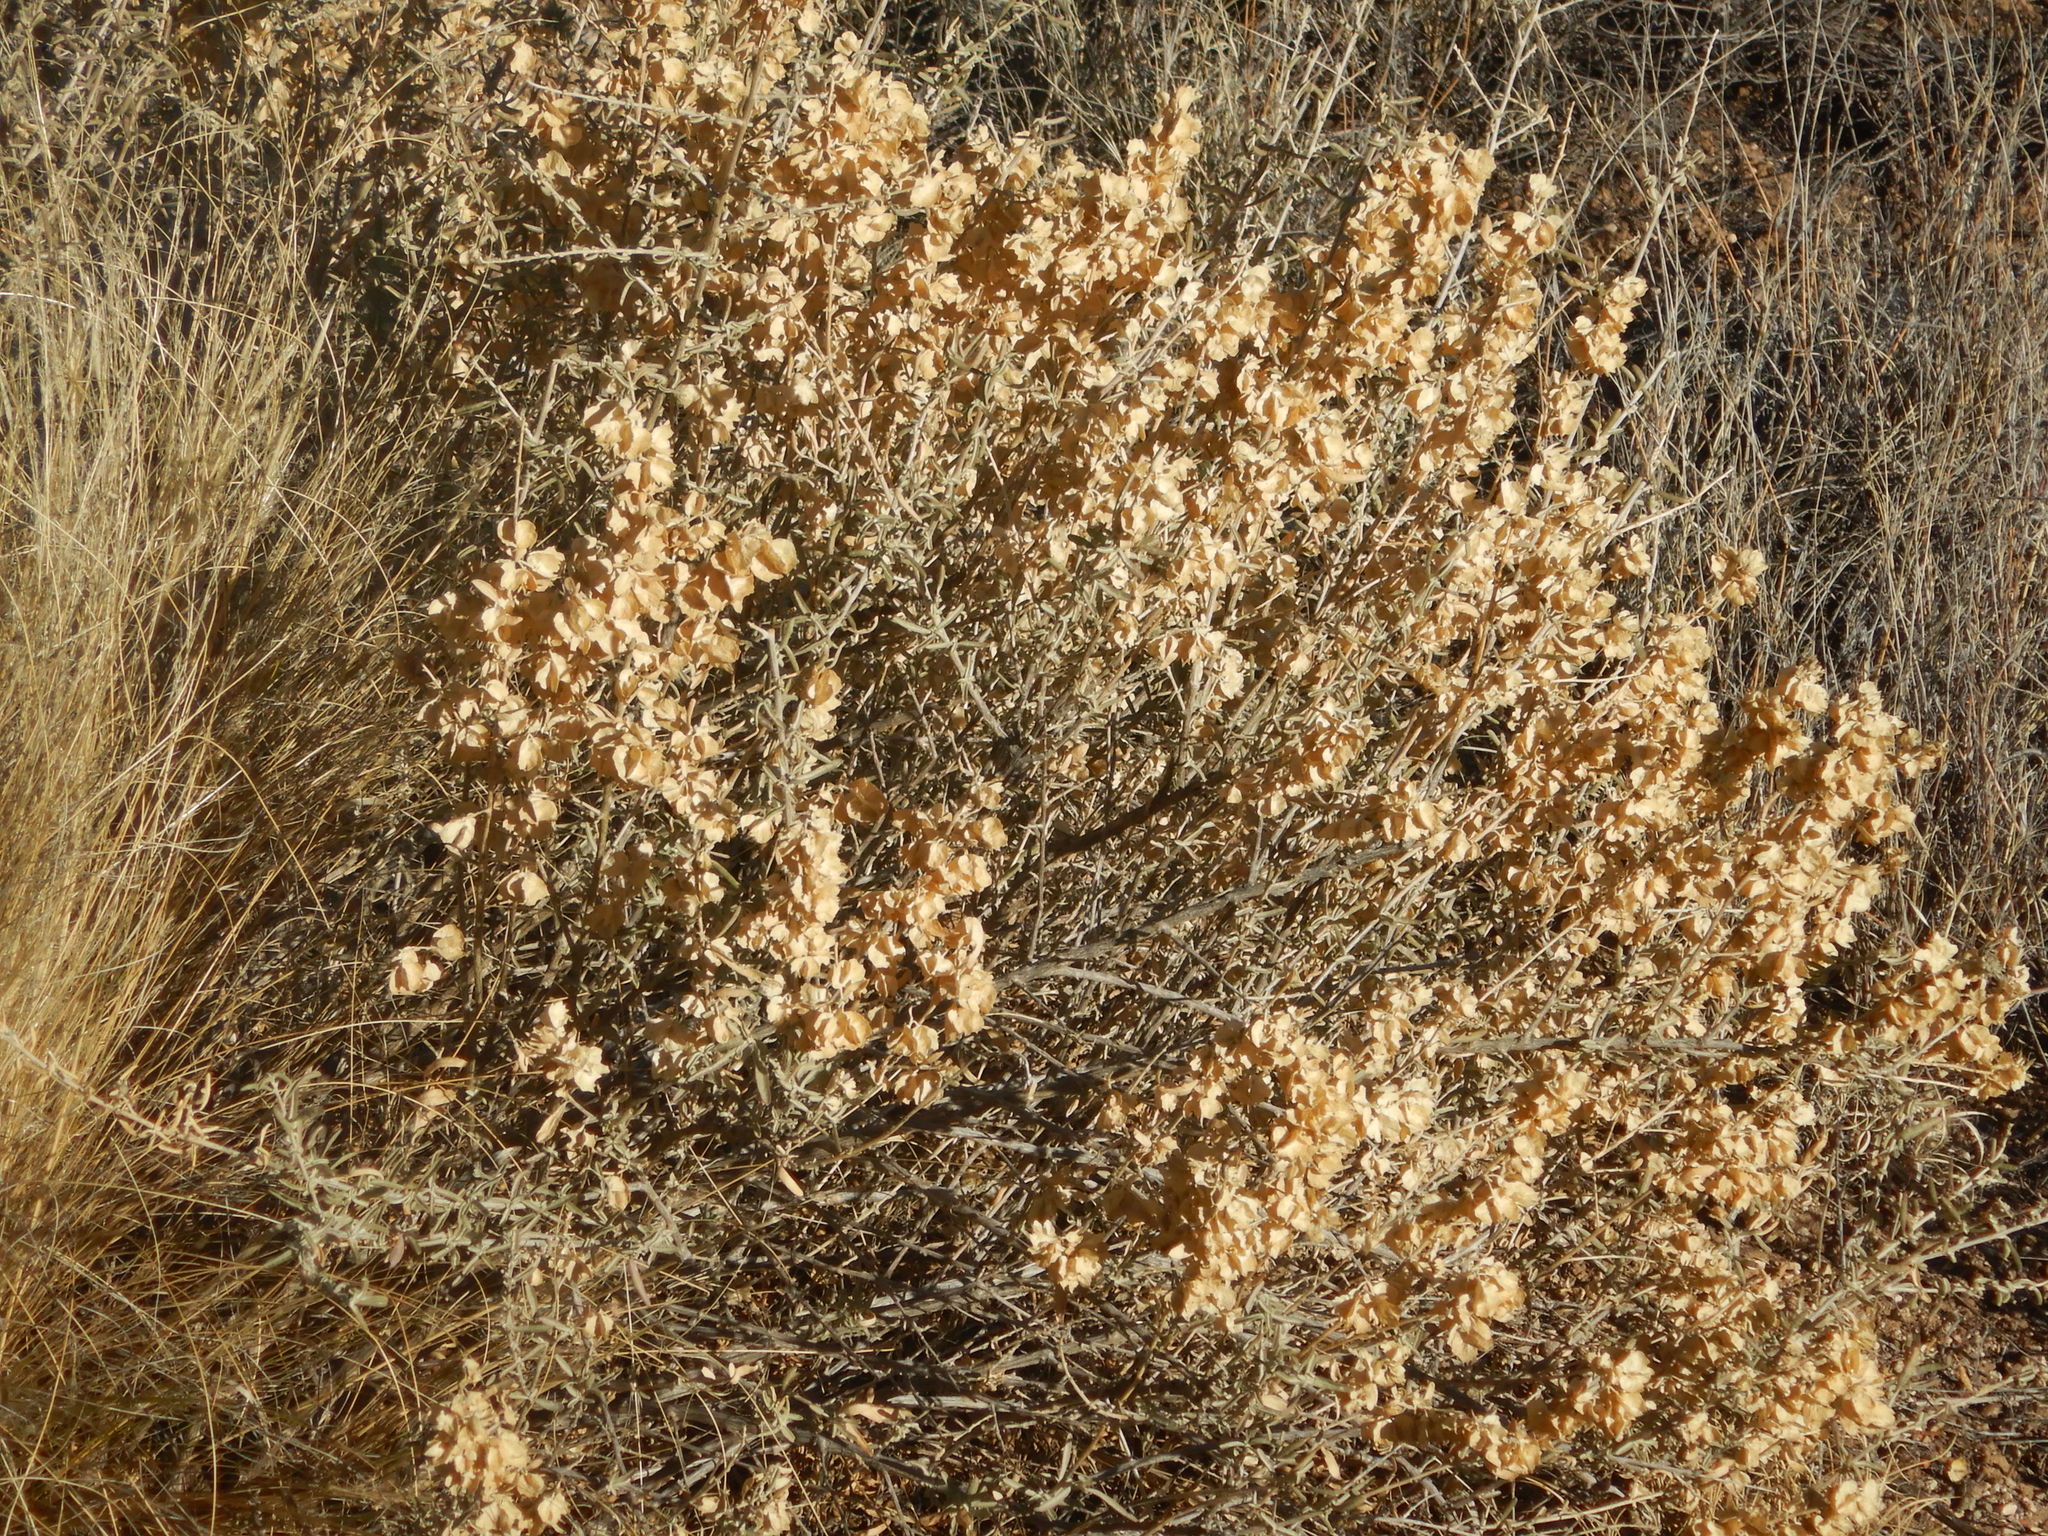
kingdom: Plantae
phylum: Tracheophyta
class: Magnoliopsida
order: Caryophyllales
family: Amaranthaceae
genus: Atriplex
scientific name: Atriplex canescens
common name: Four-wing saltbush
